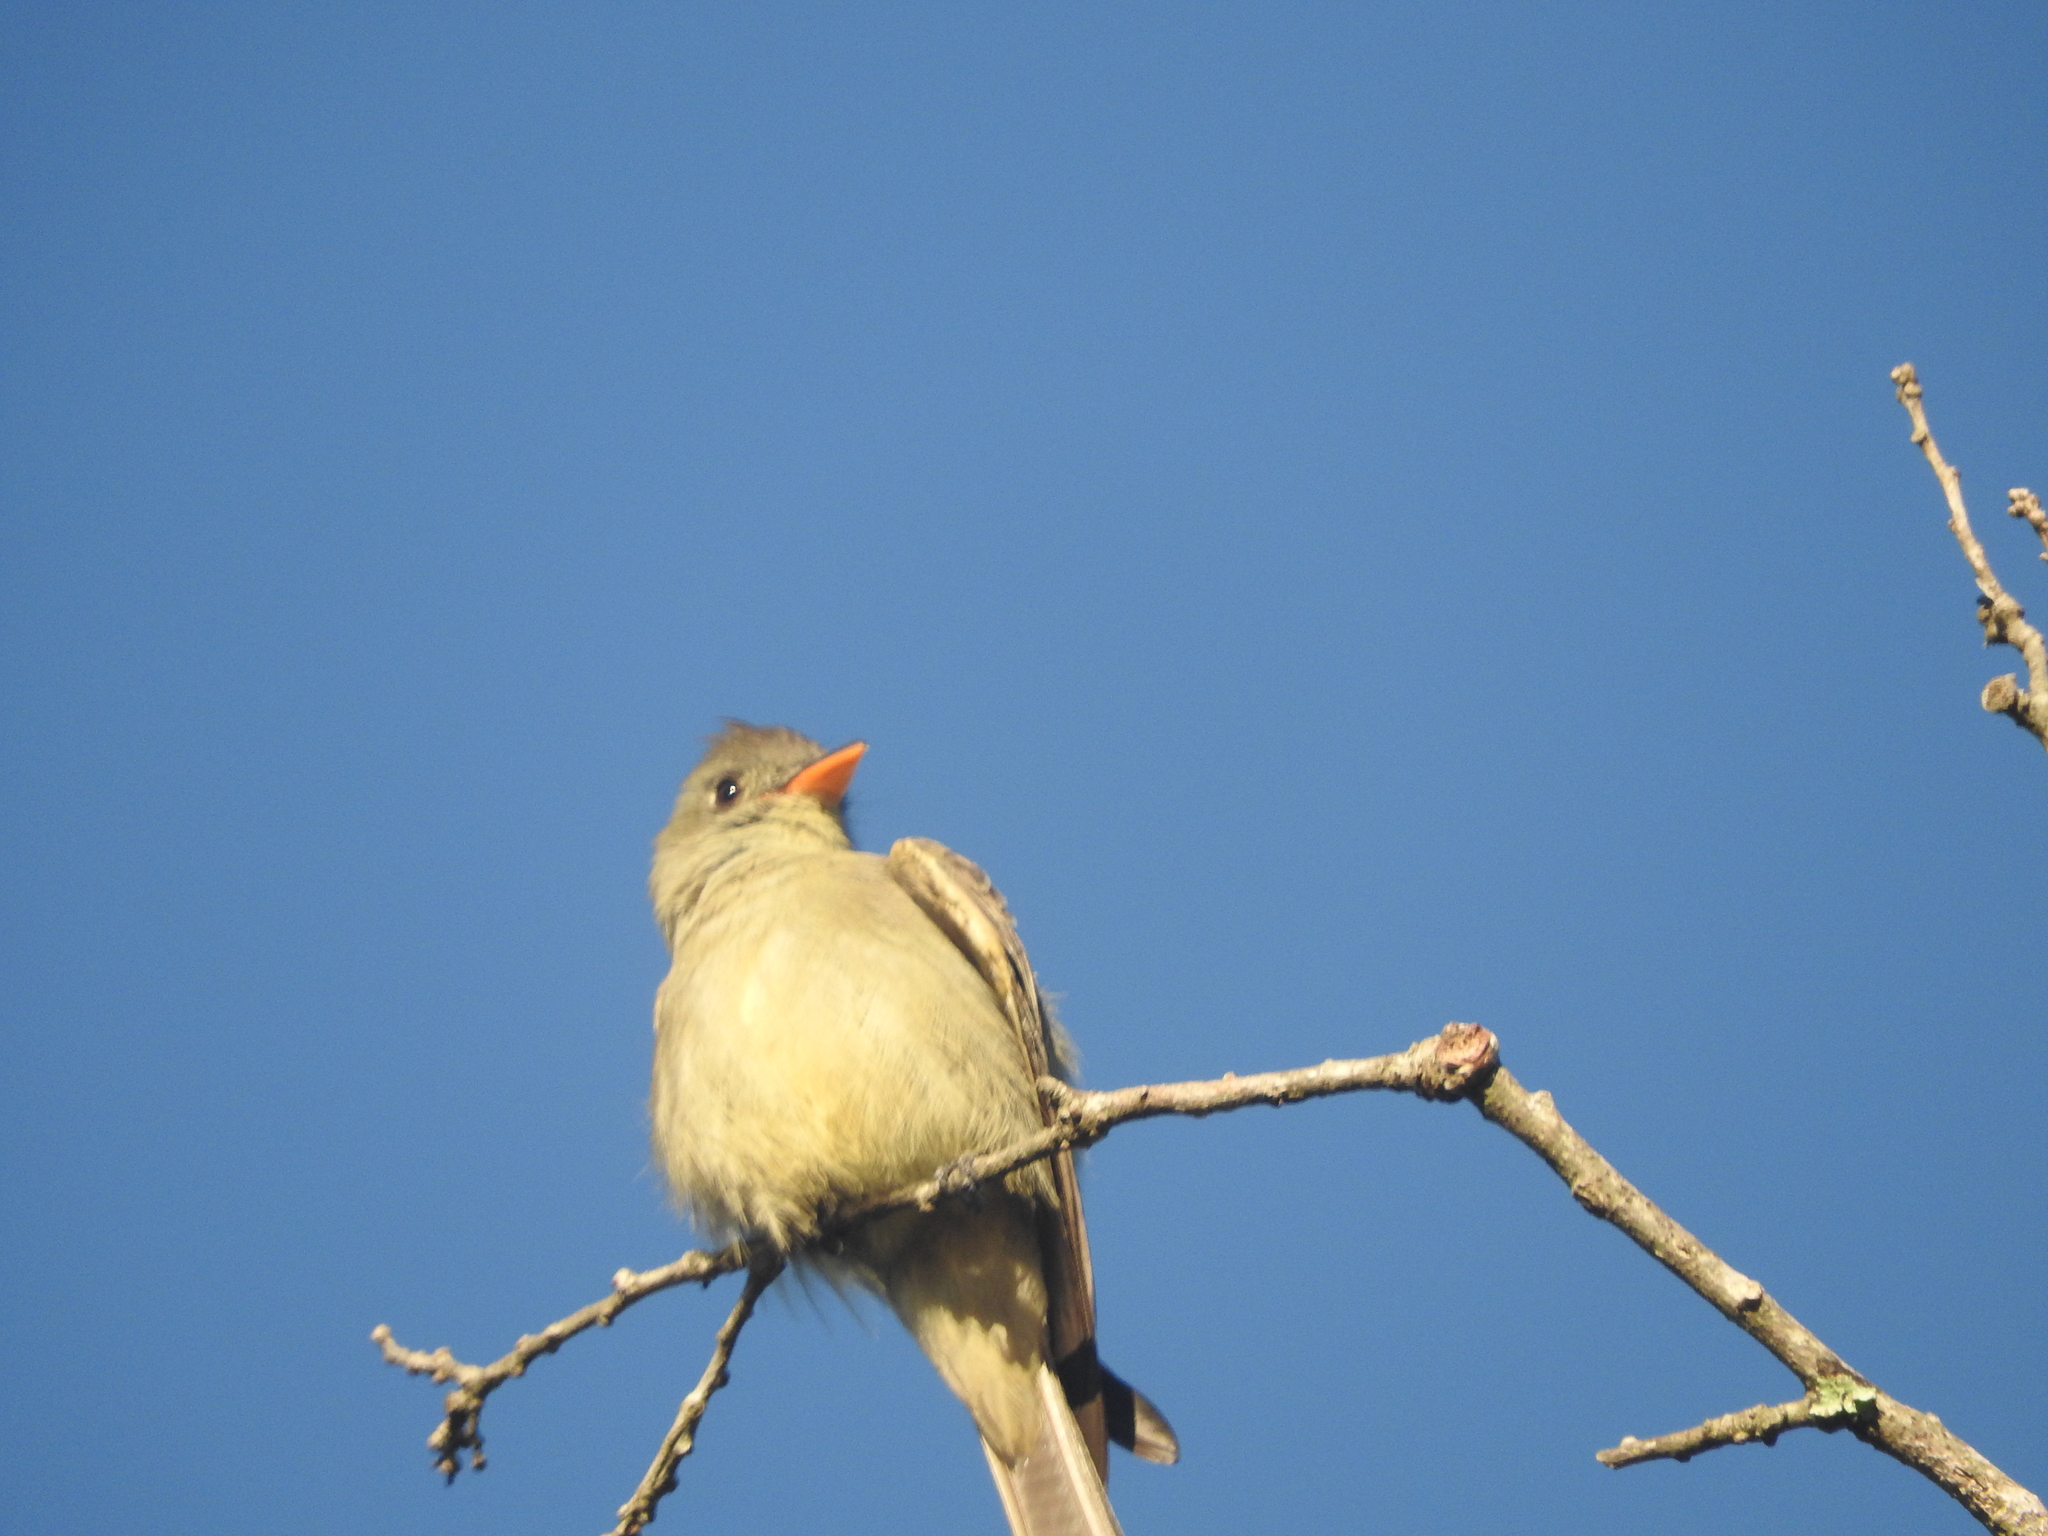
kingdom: Animalia
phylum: Chordata
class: Aves
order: Passeriformes
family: Tyrannidae
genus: Contopus
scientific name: Contopus pertinax
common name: Greater pewee
